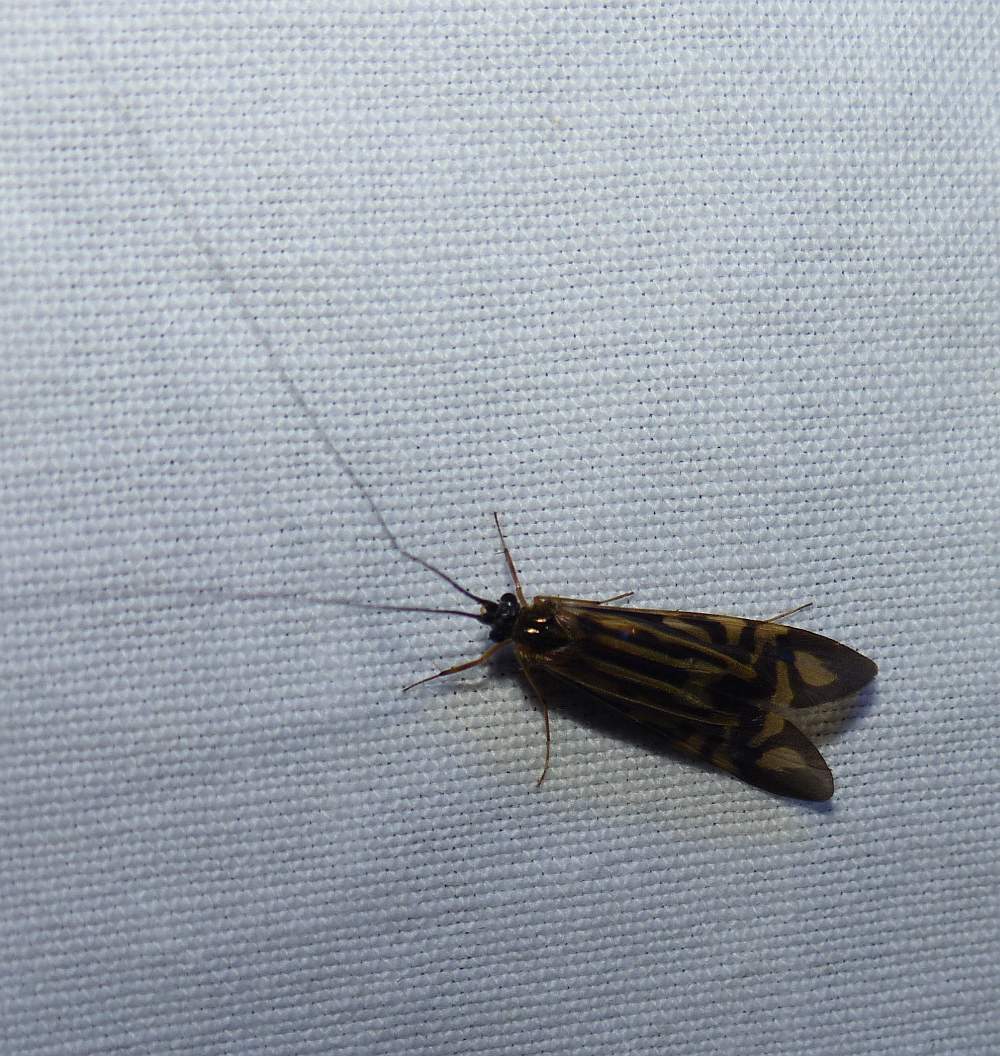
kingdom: Animalia
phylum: Arthropoda
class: Insecta
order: Trichoptera
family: Hydropsychidae
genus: Macrostemum
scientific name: Macrostemum zebratum
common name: Zebra caddisfly
